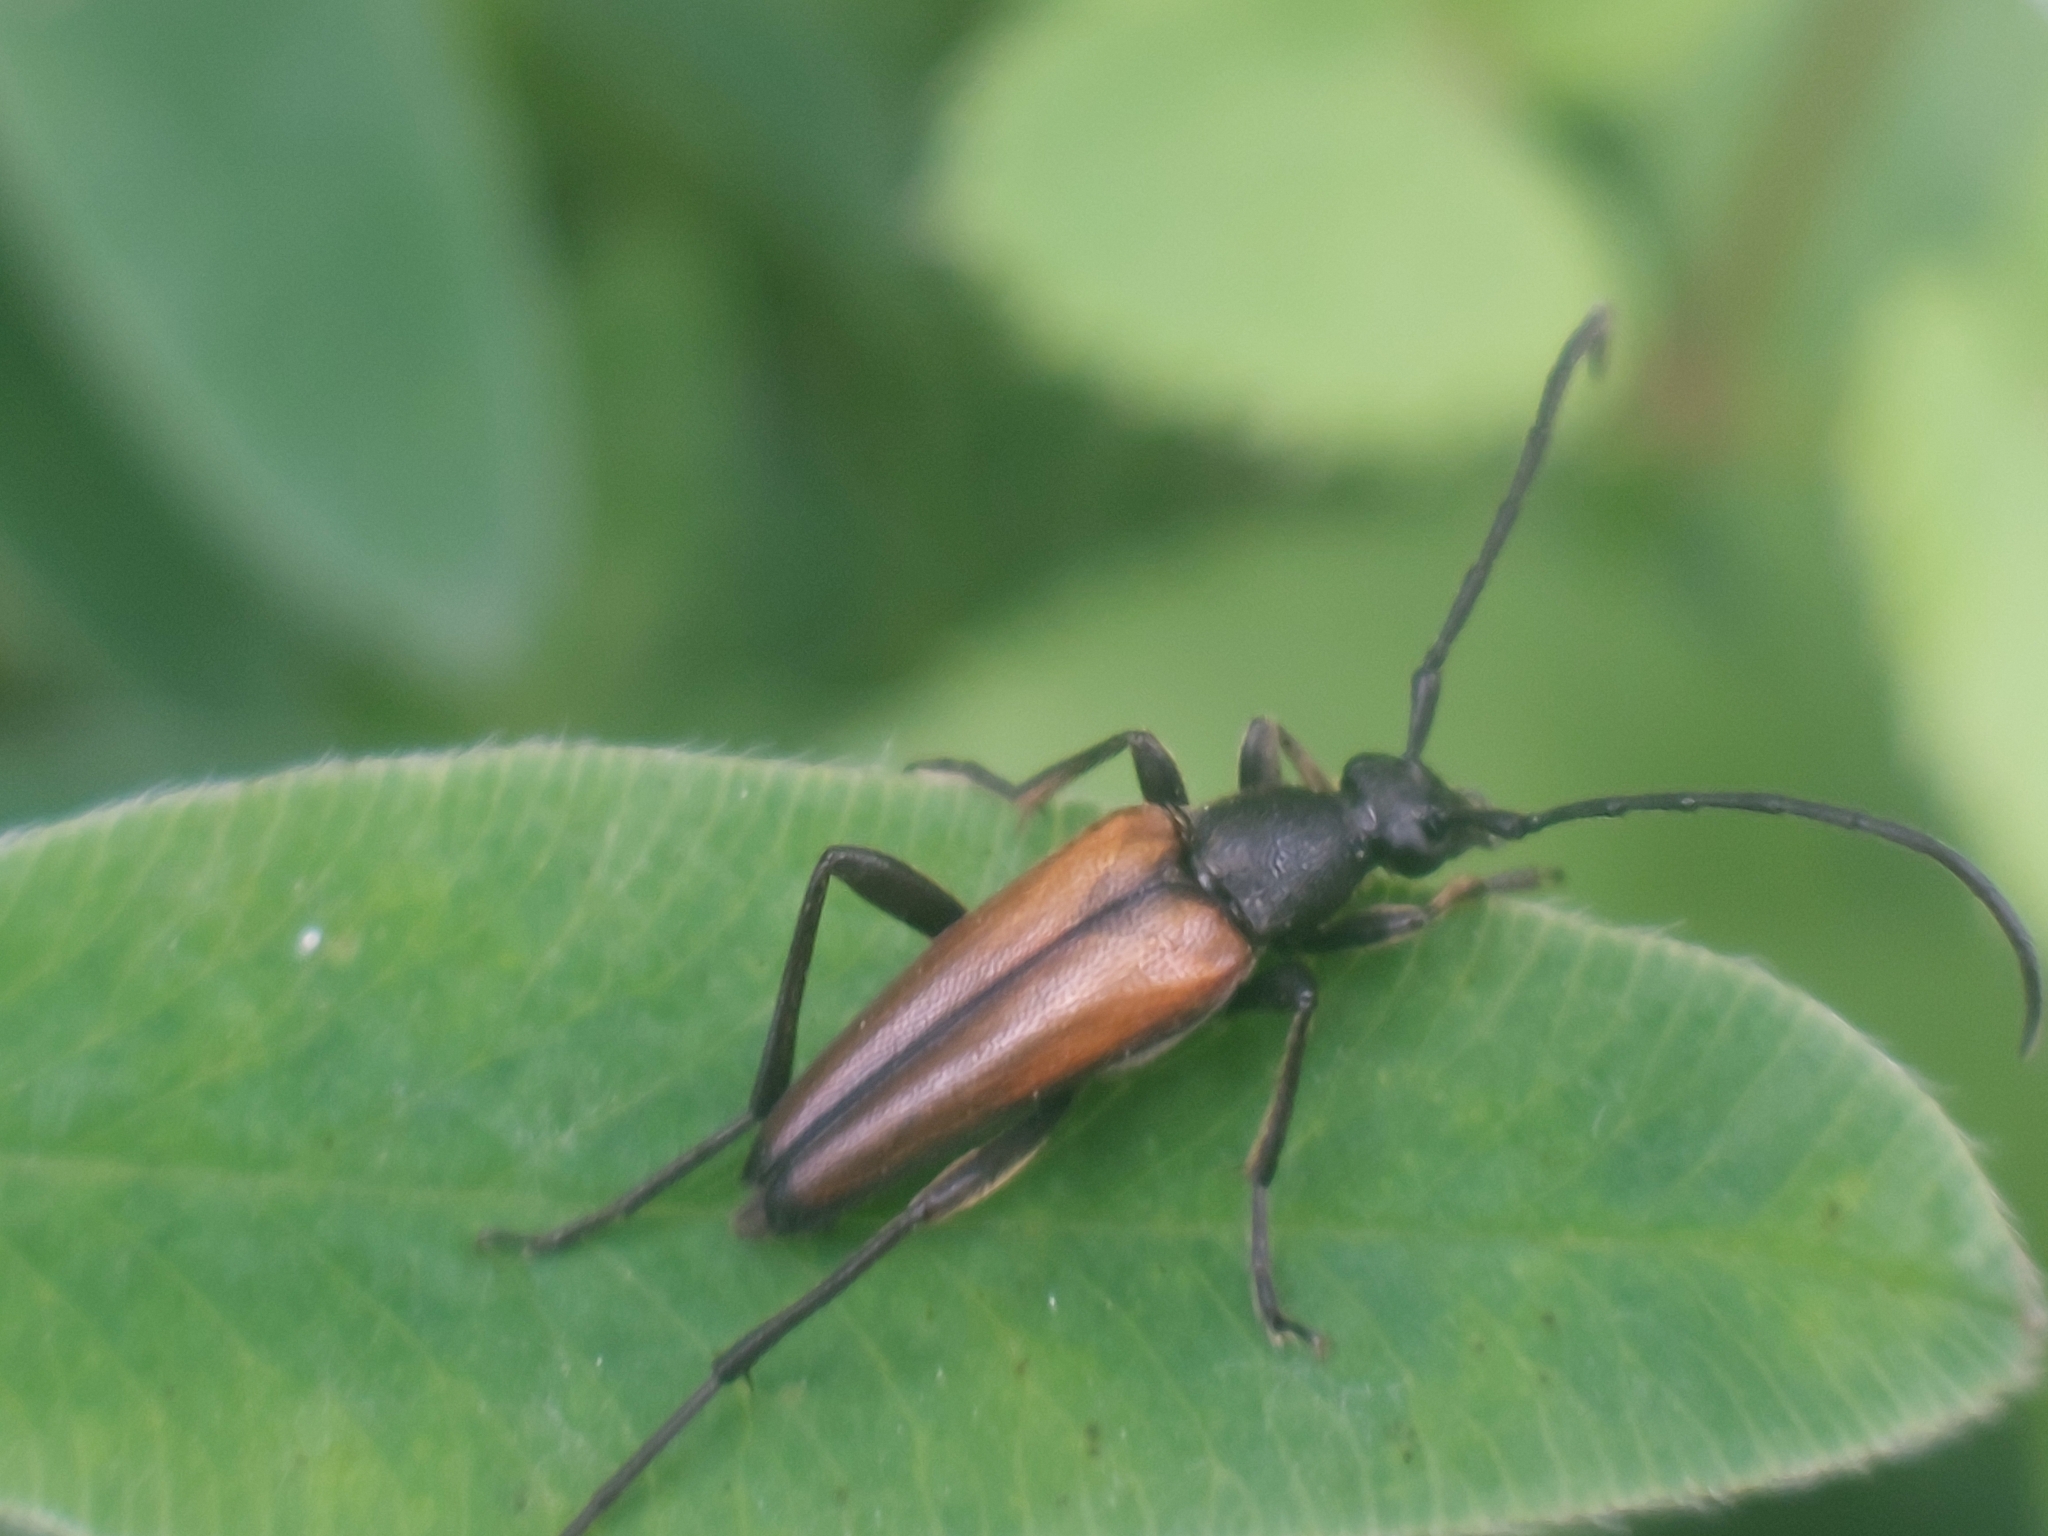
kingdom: Animalia
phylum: Arthropoda
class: Insecta
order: Coleoptera
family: Cerambycidae
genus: Stenurella
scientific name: Stenurella melanura
